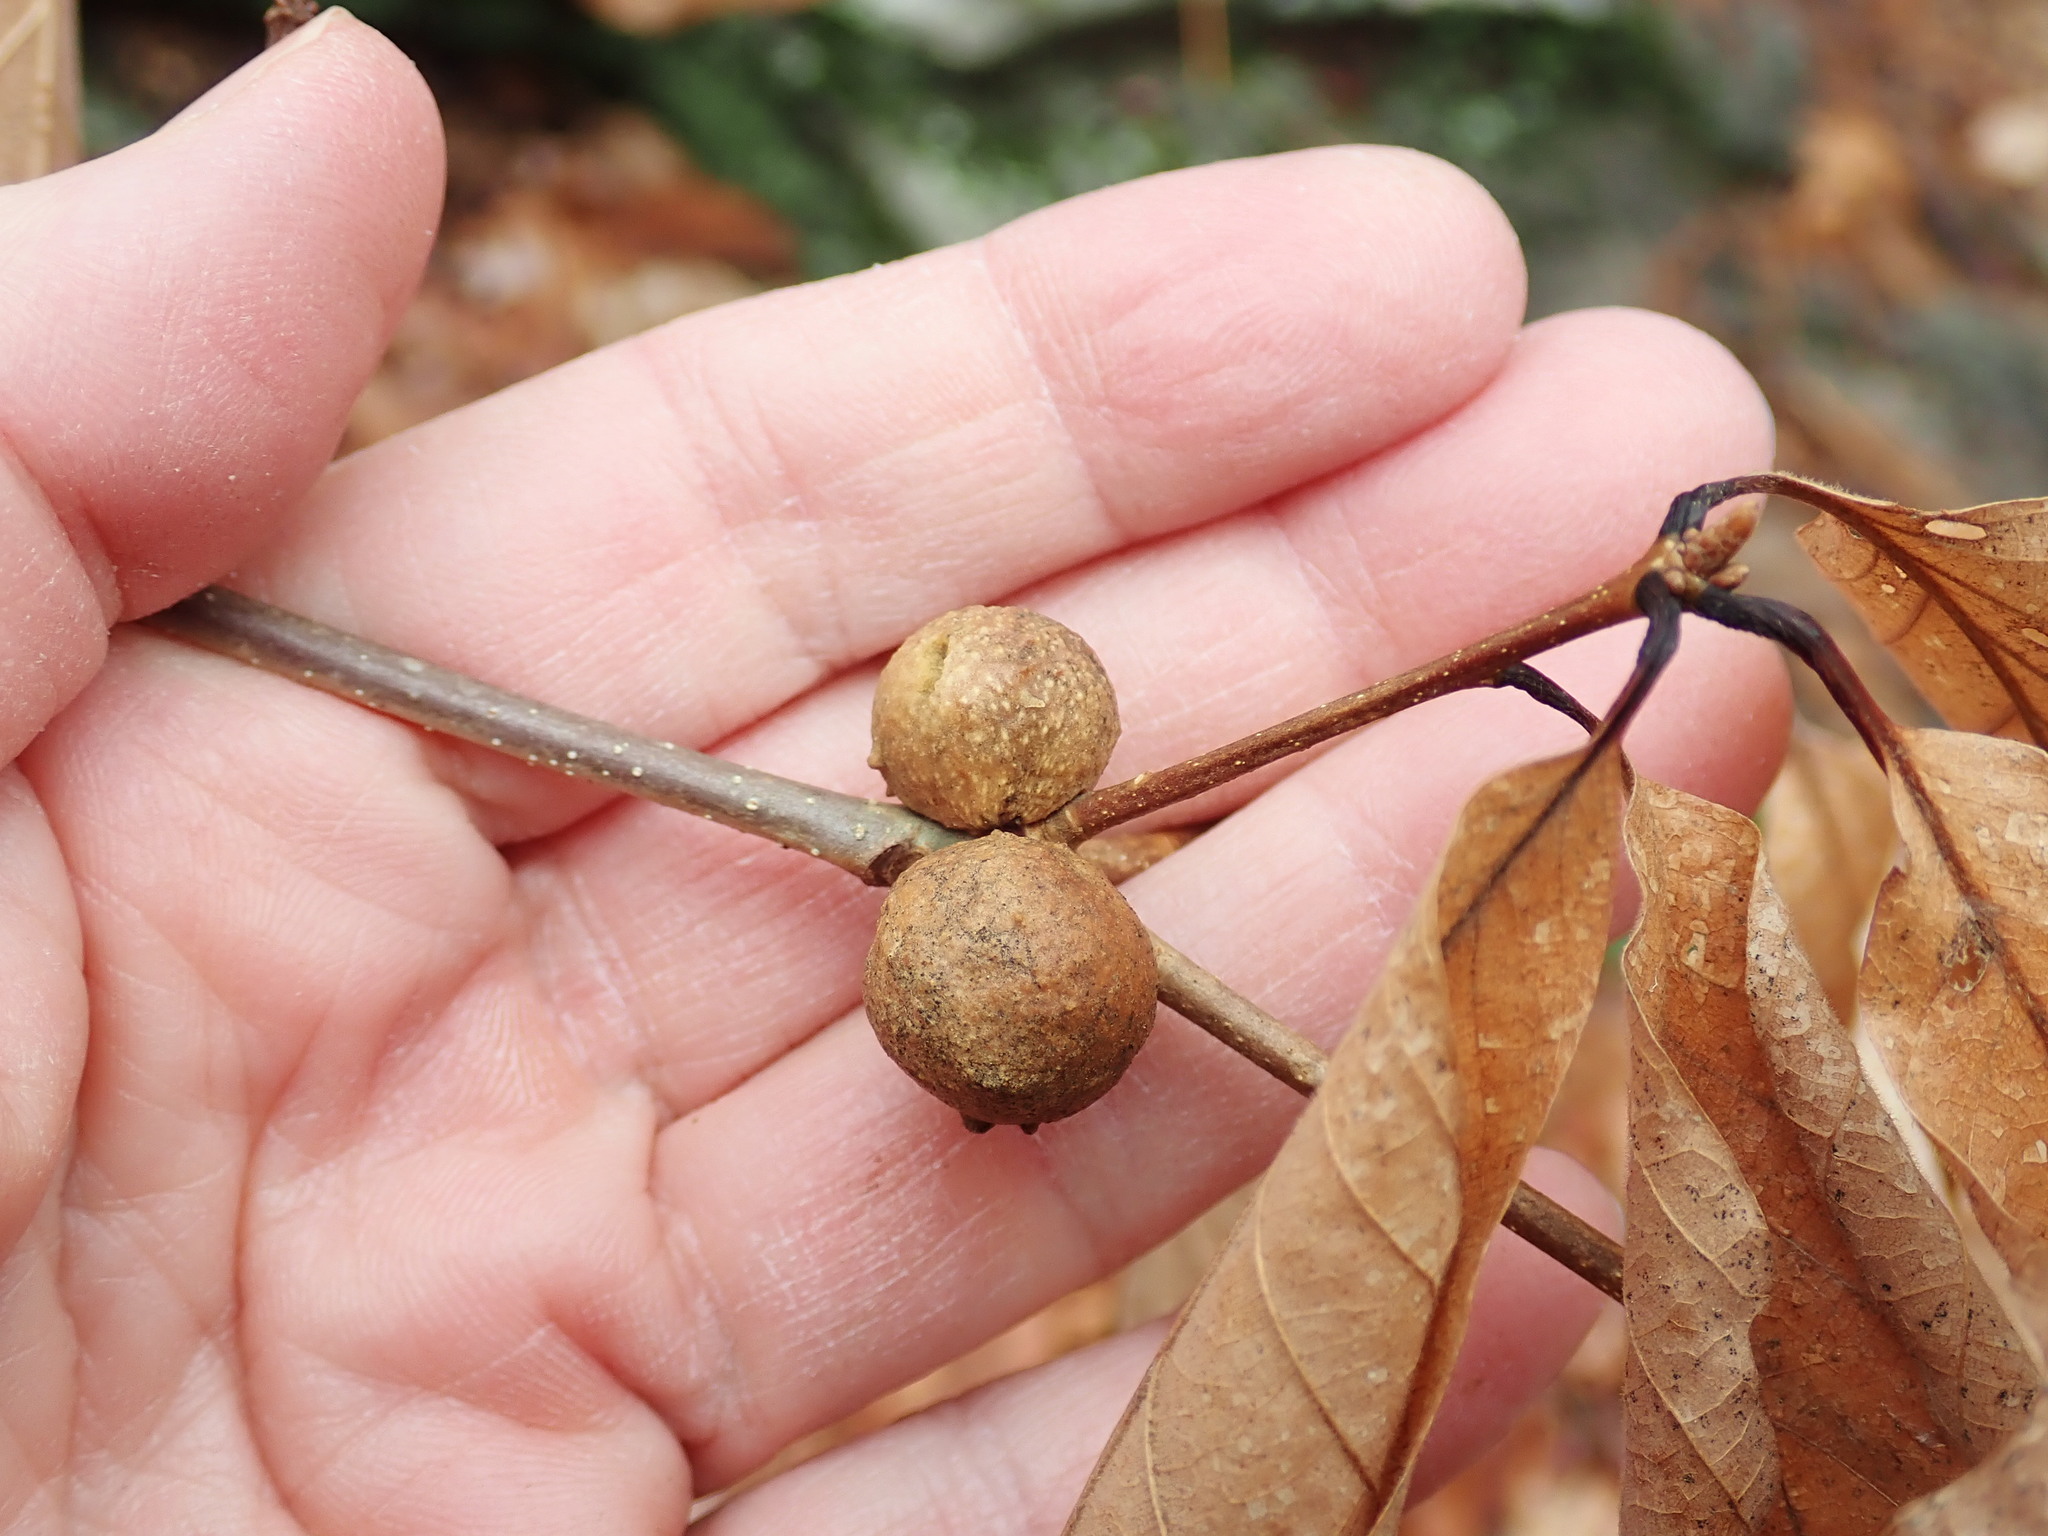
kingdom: Animalia
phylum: Arthropoda
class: Insecta
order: Hymenoptera
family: Cynipidae
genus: Disholcaspis
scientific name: Disholcaspis quercusglobulus
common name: Round bullet gall wasp
